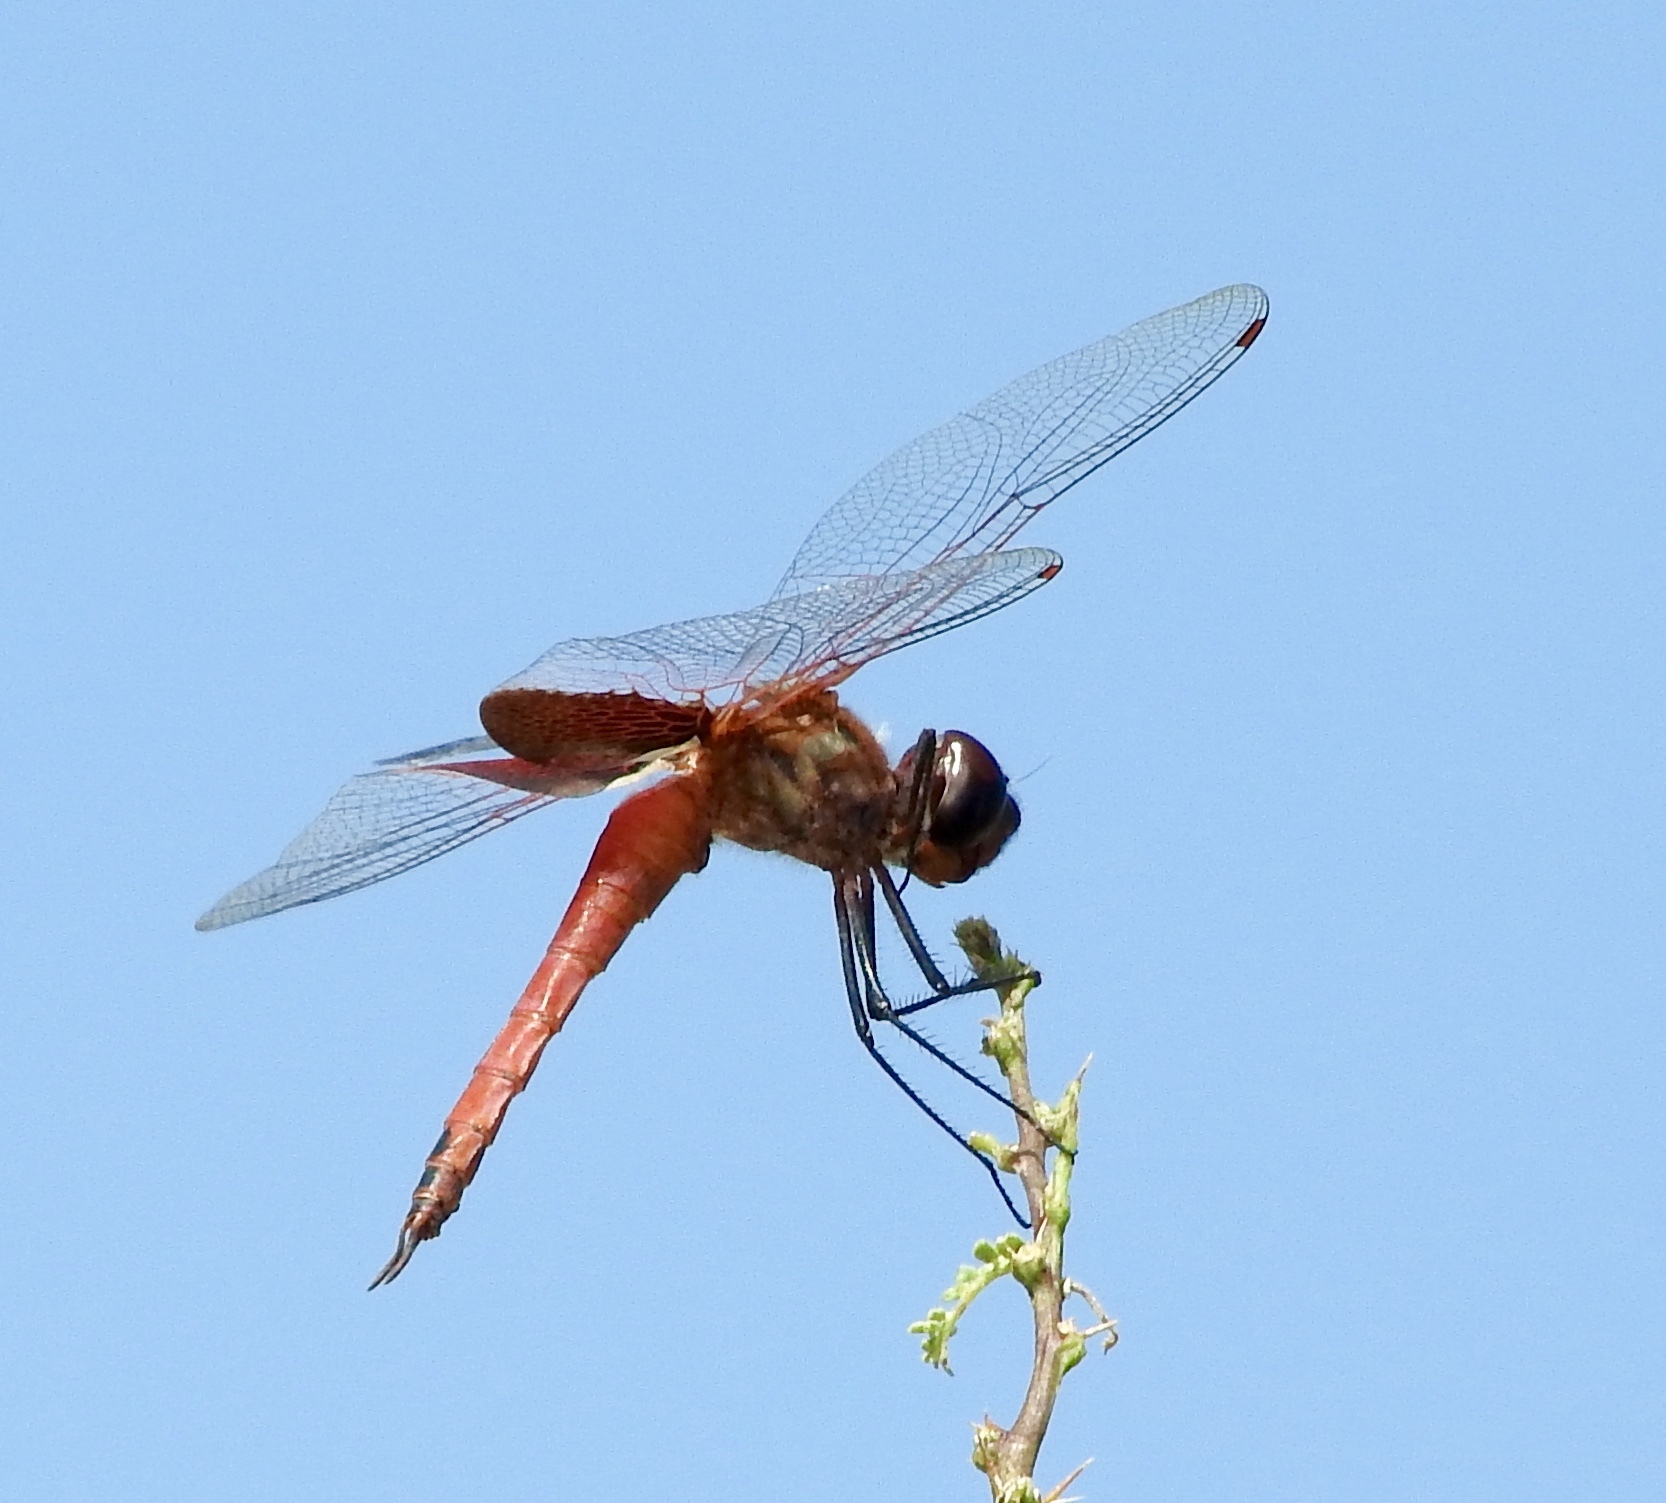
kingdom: Animalia
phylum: Arthropoda
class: Insecta
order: Odonata
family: Libellulidae
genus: Tramea
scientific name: Tramea insularis
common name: Antillean saddlebags
